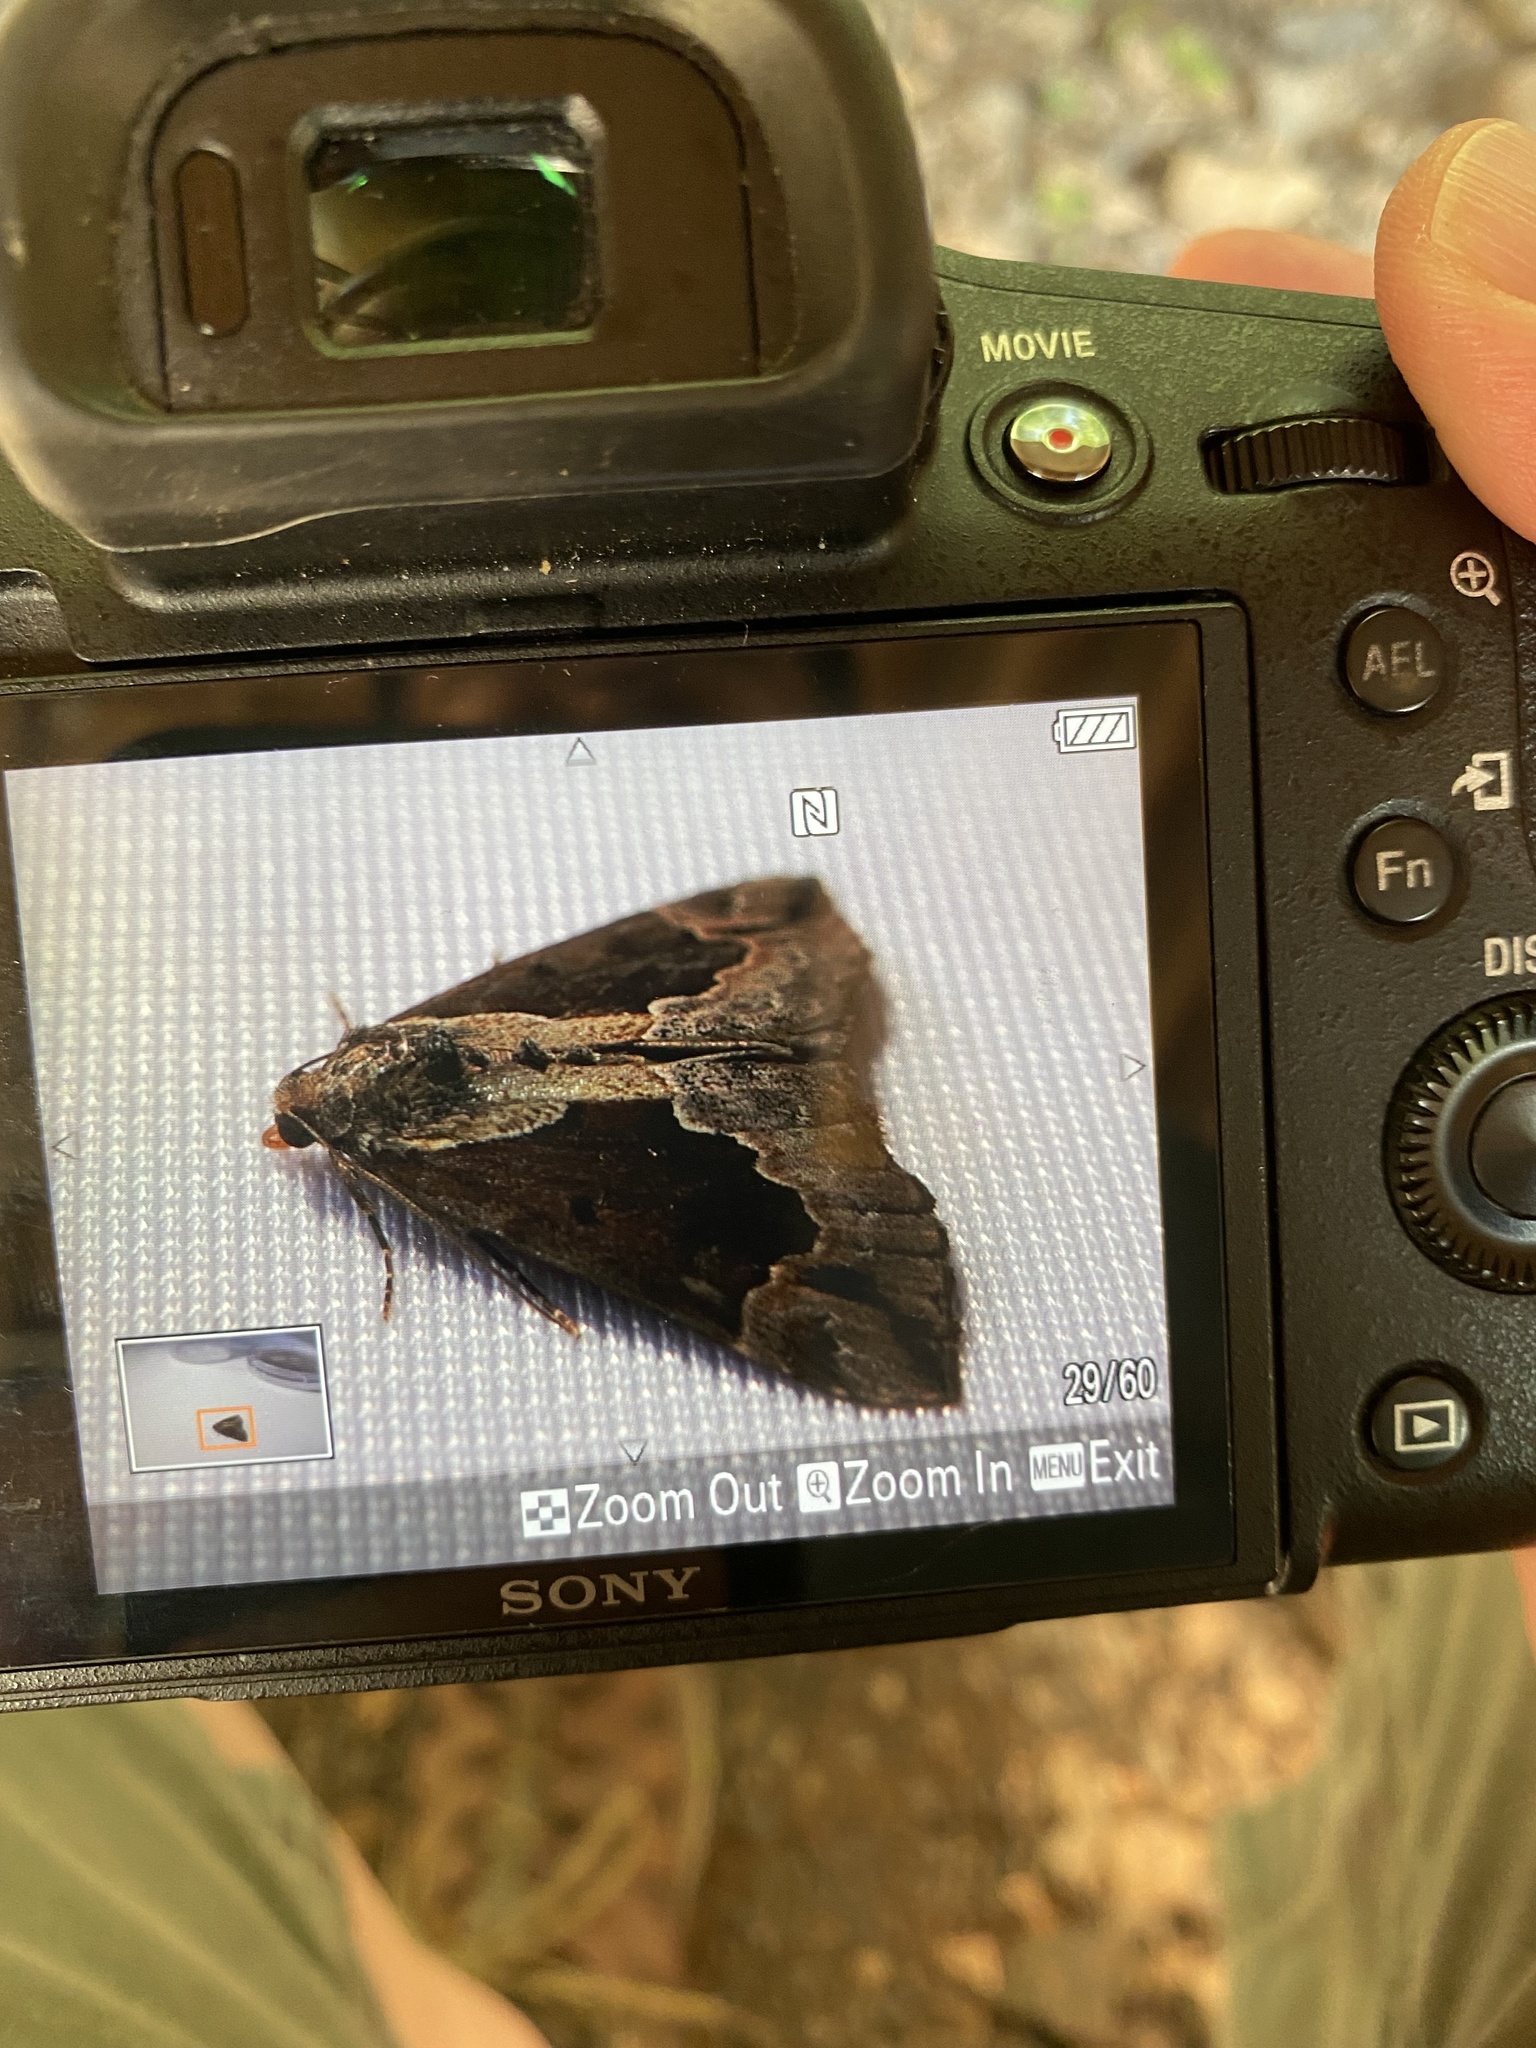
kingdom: Animalia
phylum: Arthropoda
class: Insecta
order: Lepidoptera
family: Erebidae
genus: Hypena
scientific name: Hypena baltimoralis
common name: Baltimore snout
